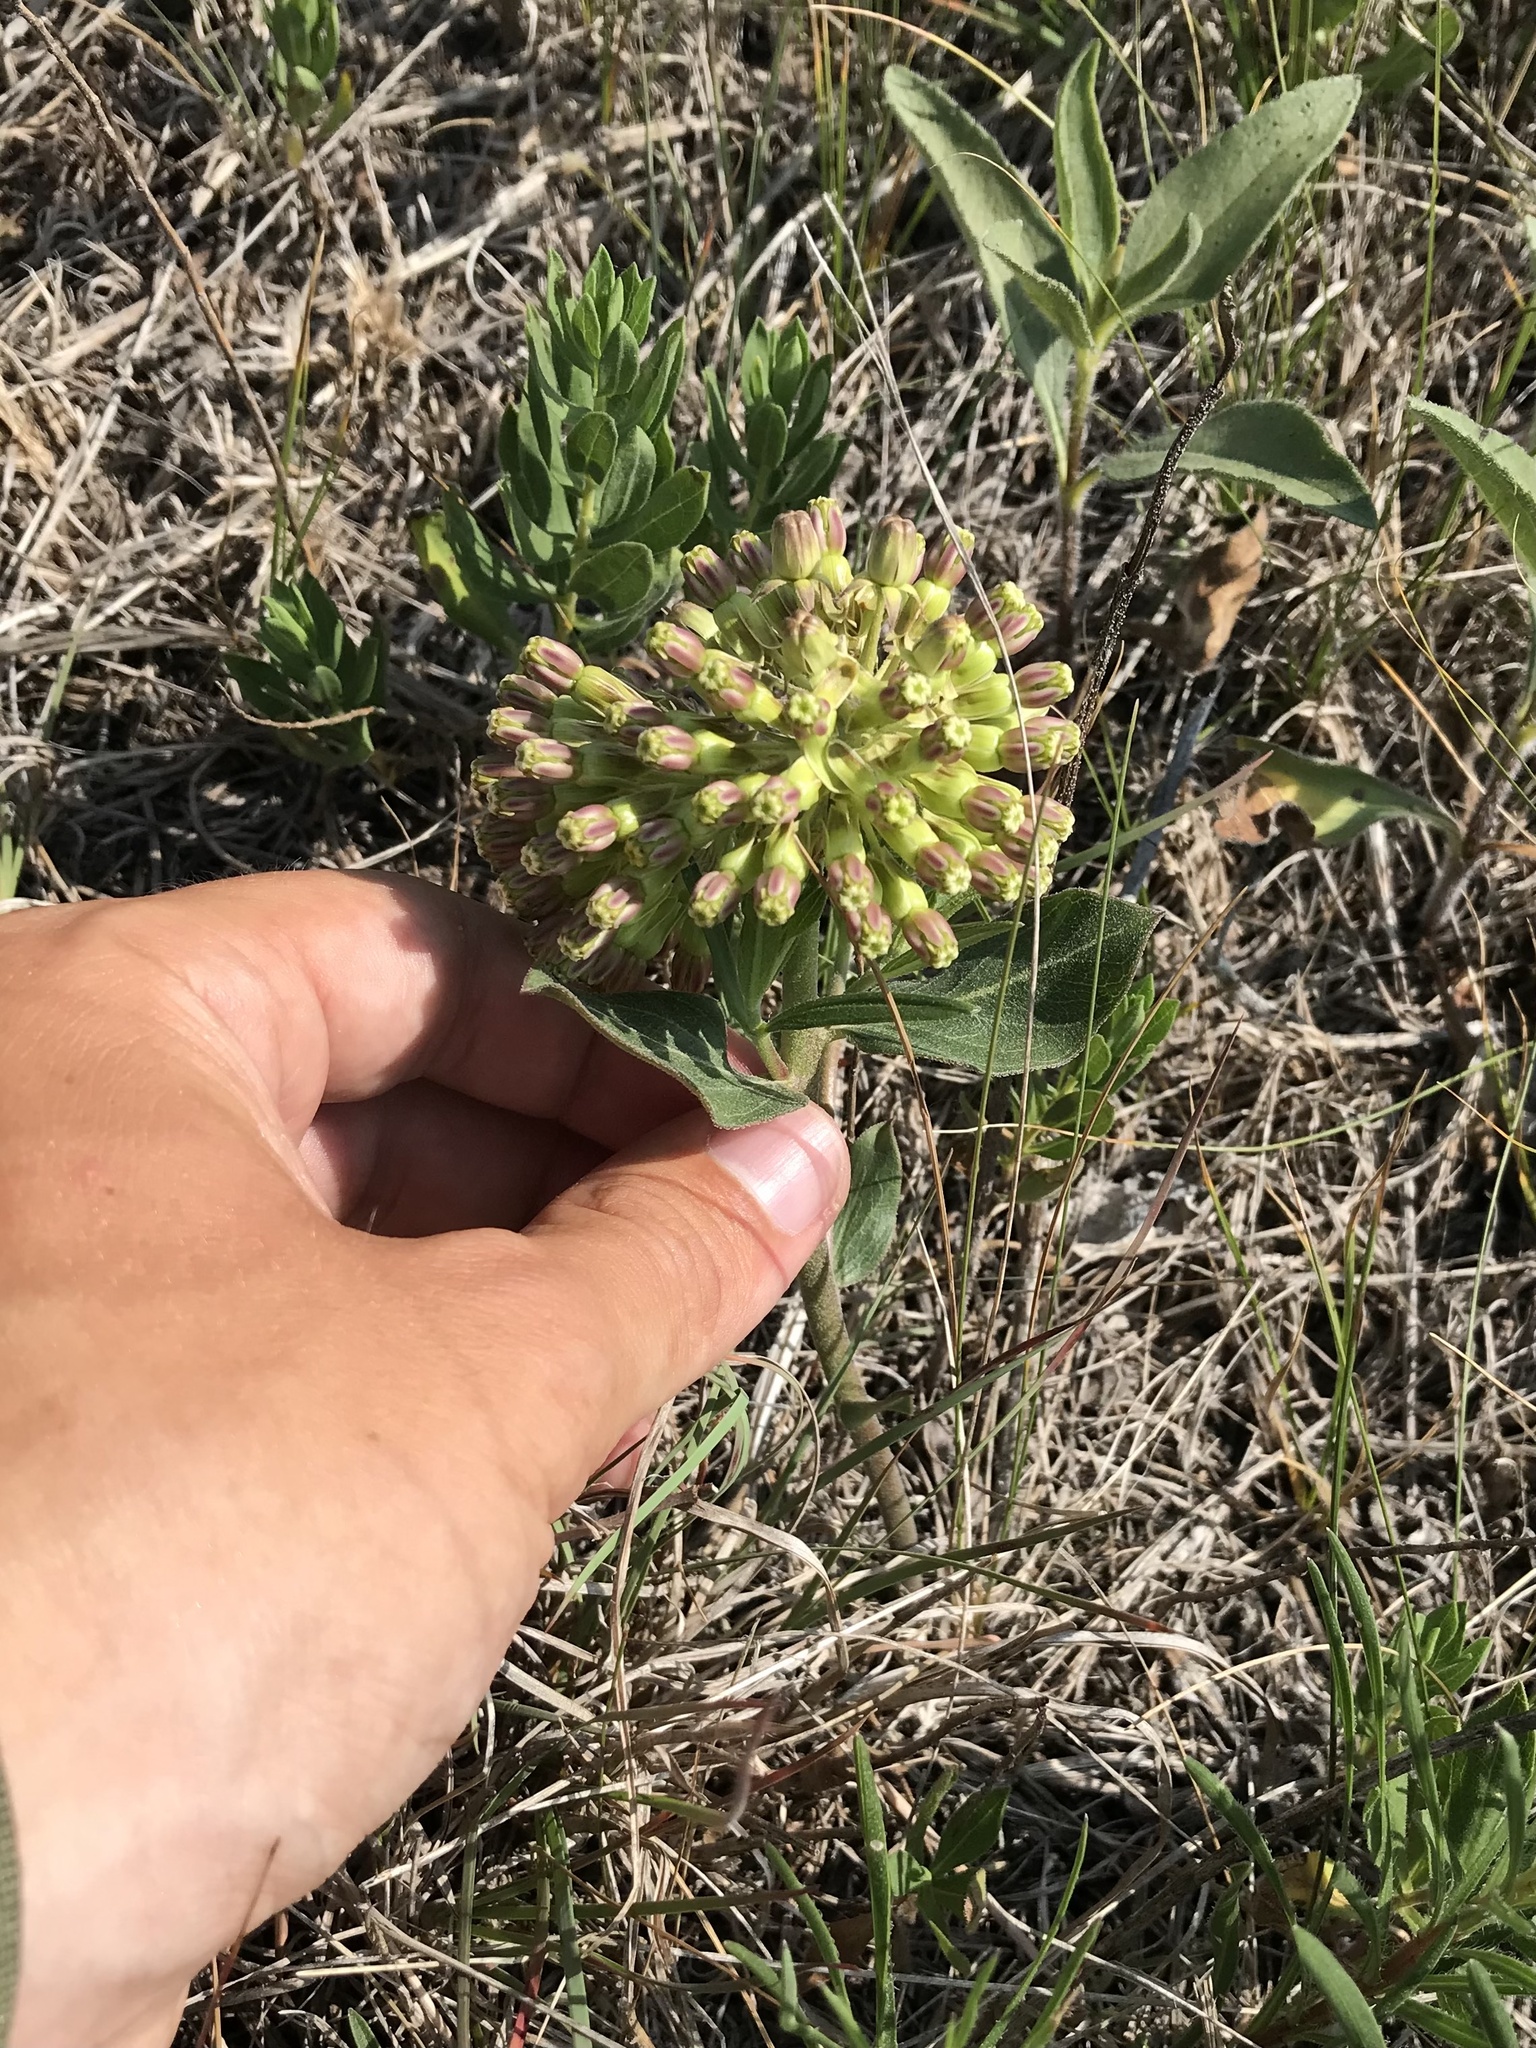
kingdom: Plantae
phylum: Tracheophyta
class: Magnoliopsida
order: Gentianales
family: Apocynaceae
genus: Asclepias
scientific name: Asclepias viridiflora
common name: Green comet milkweed
